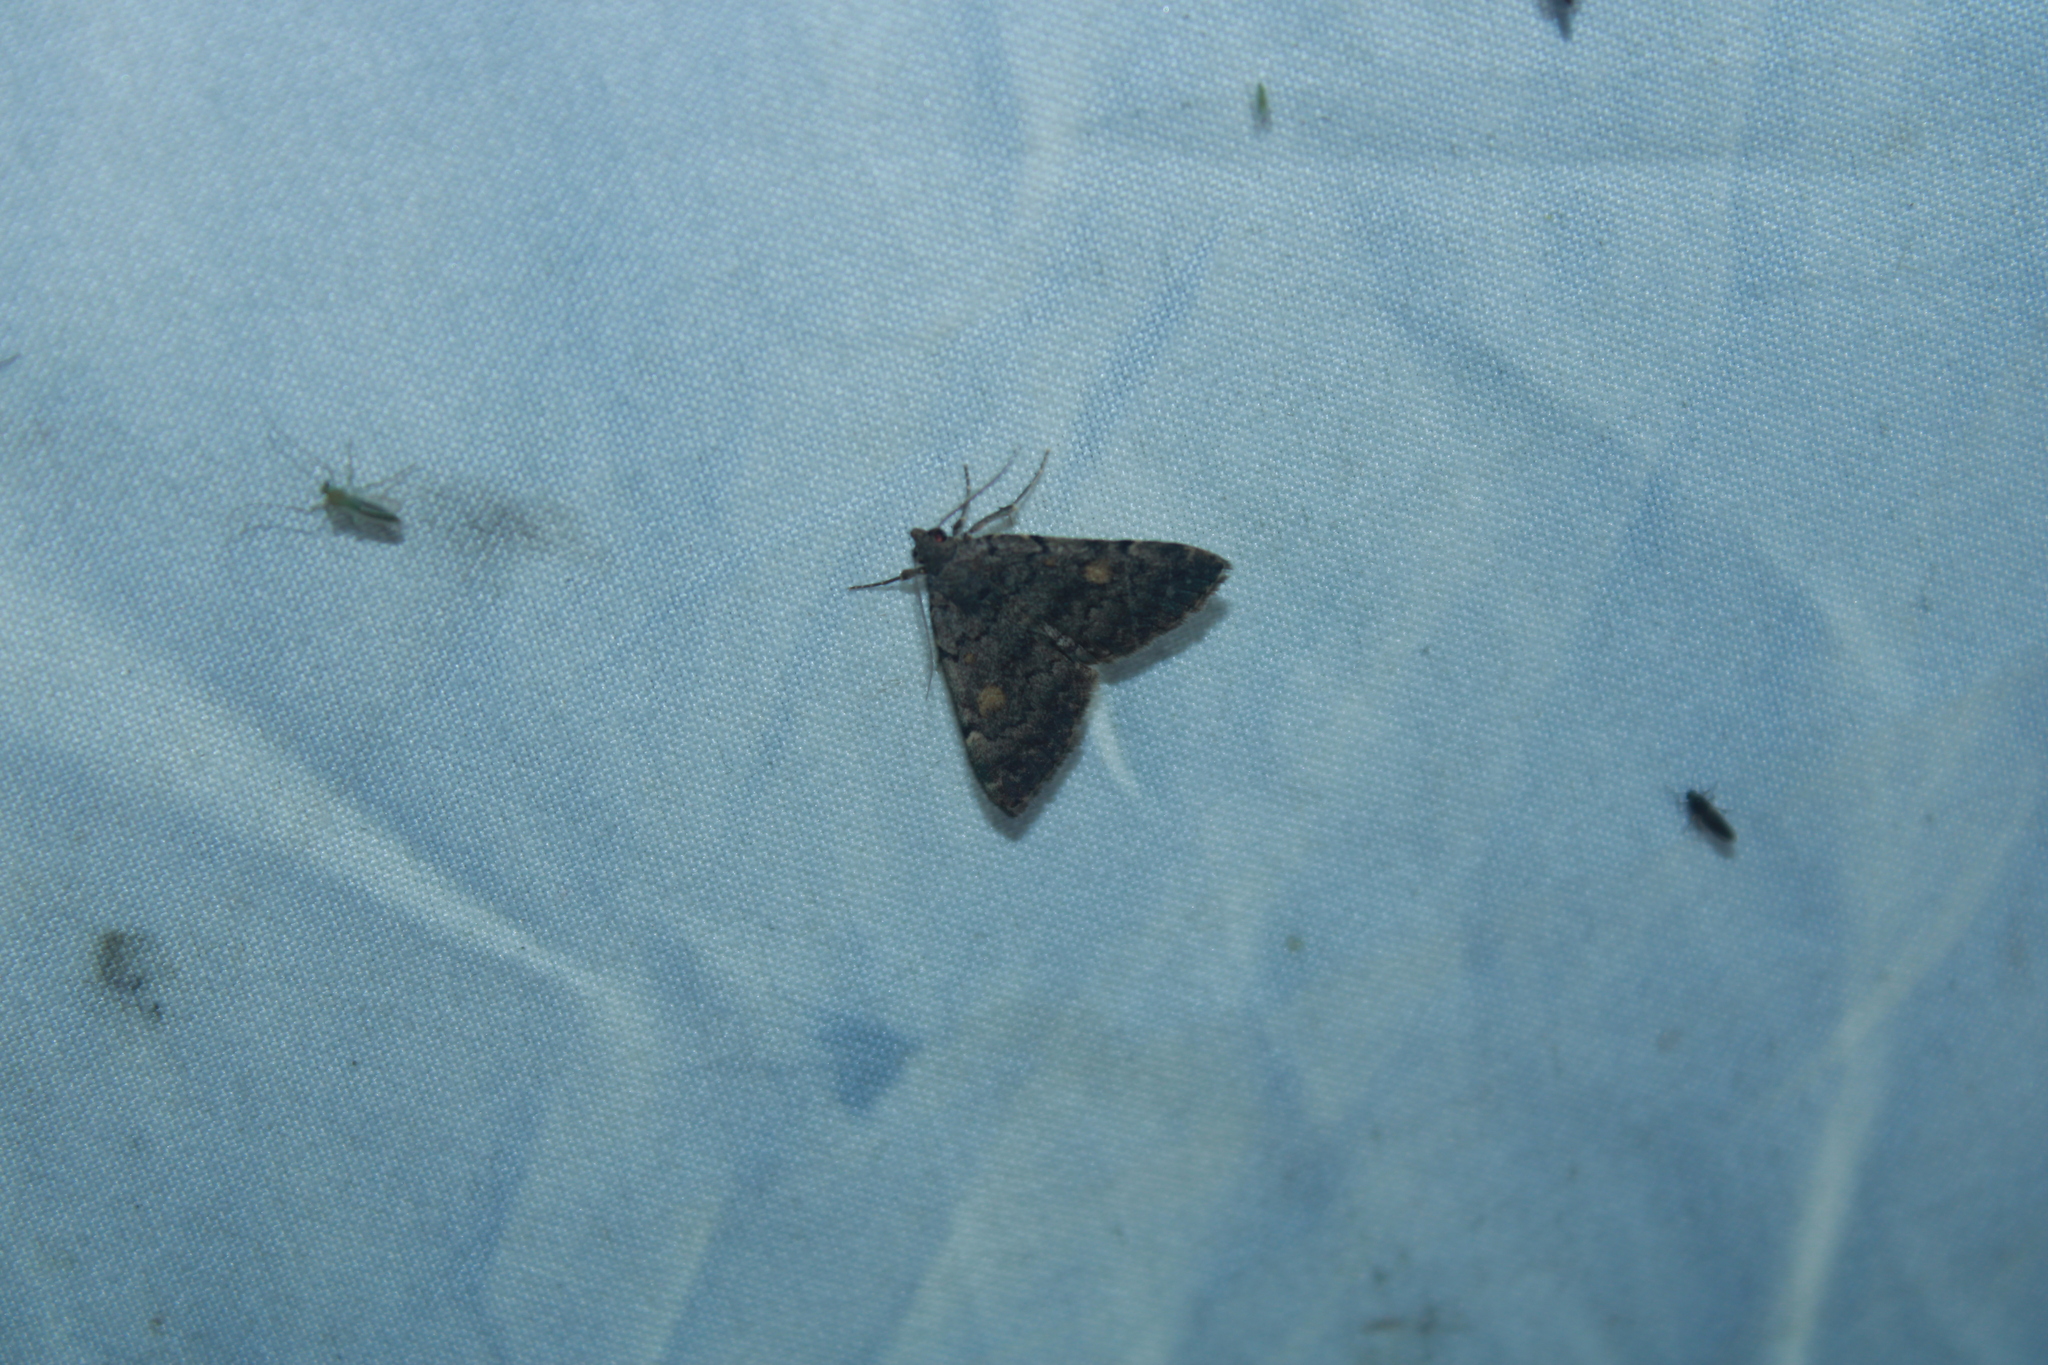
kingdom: Animalia
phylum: Arthropoda
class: Insecta
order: Lepidoptera
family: Erebidae
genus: Idia
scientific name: Idia aemula
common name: Common idia moth
